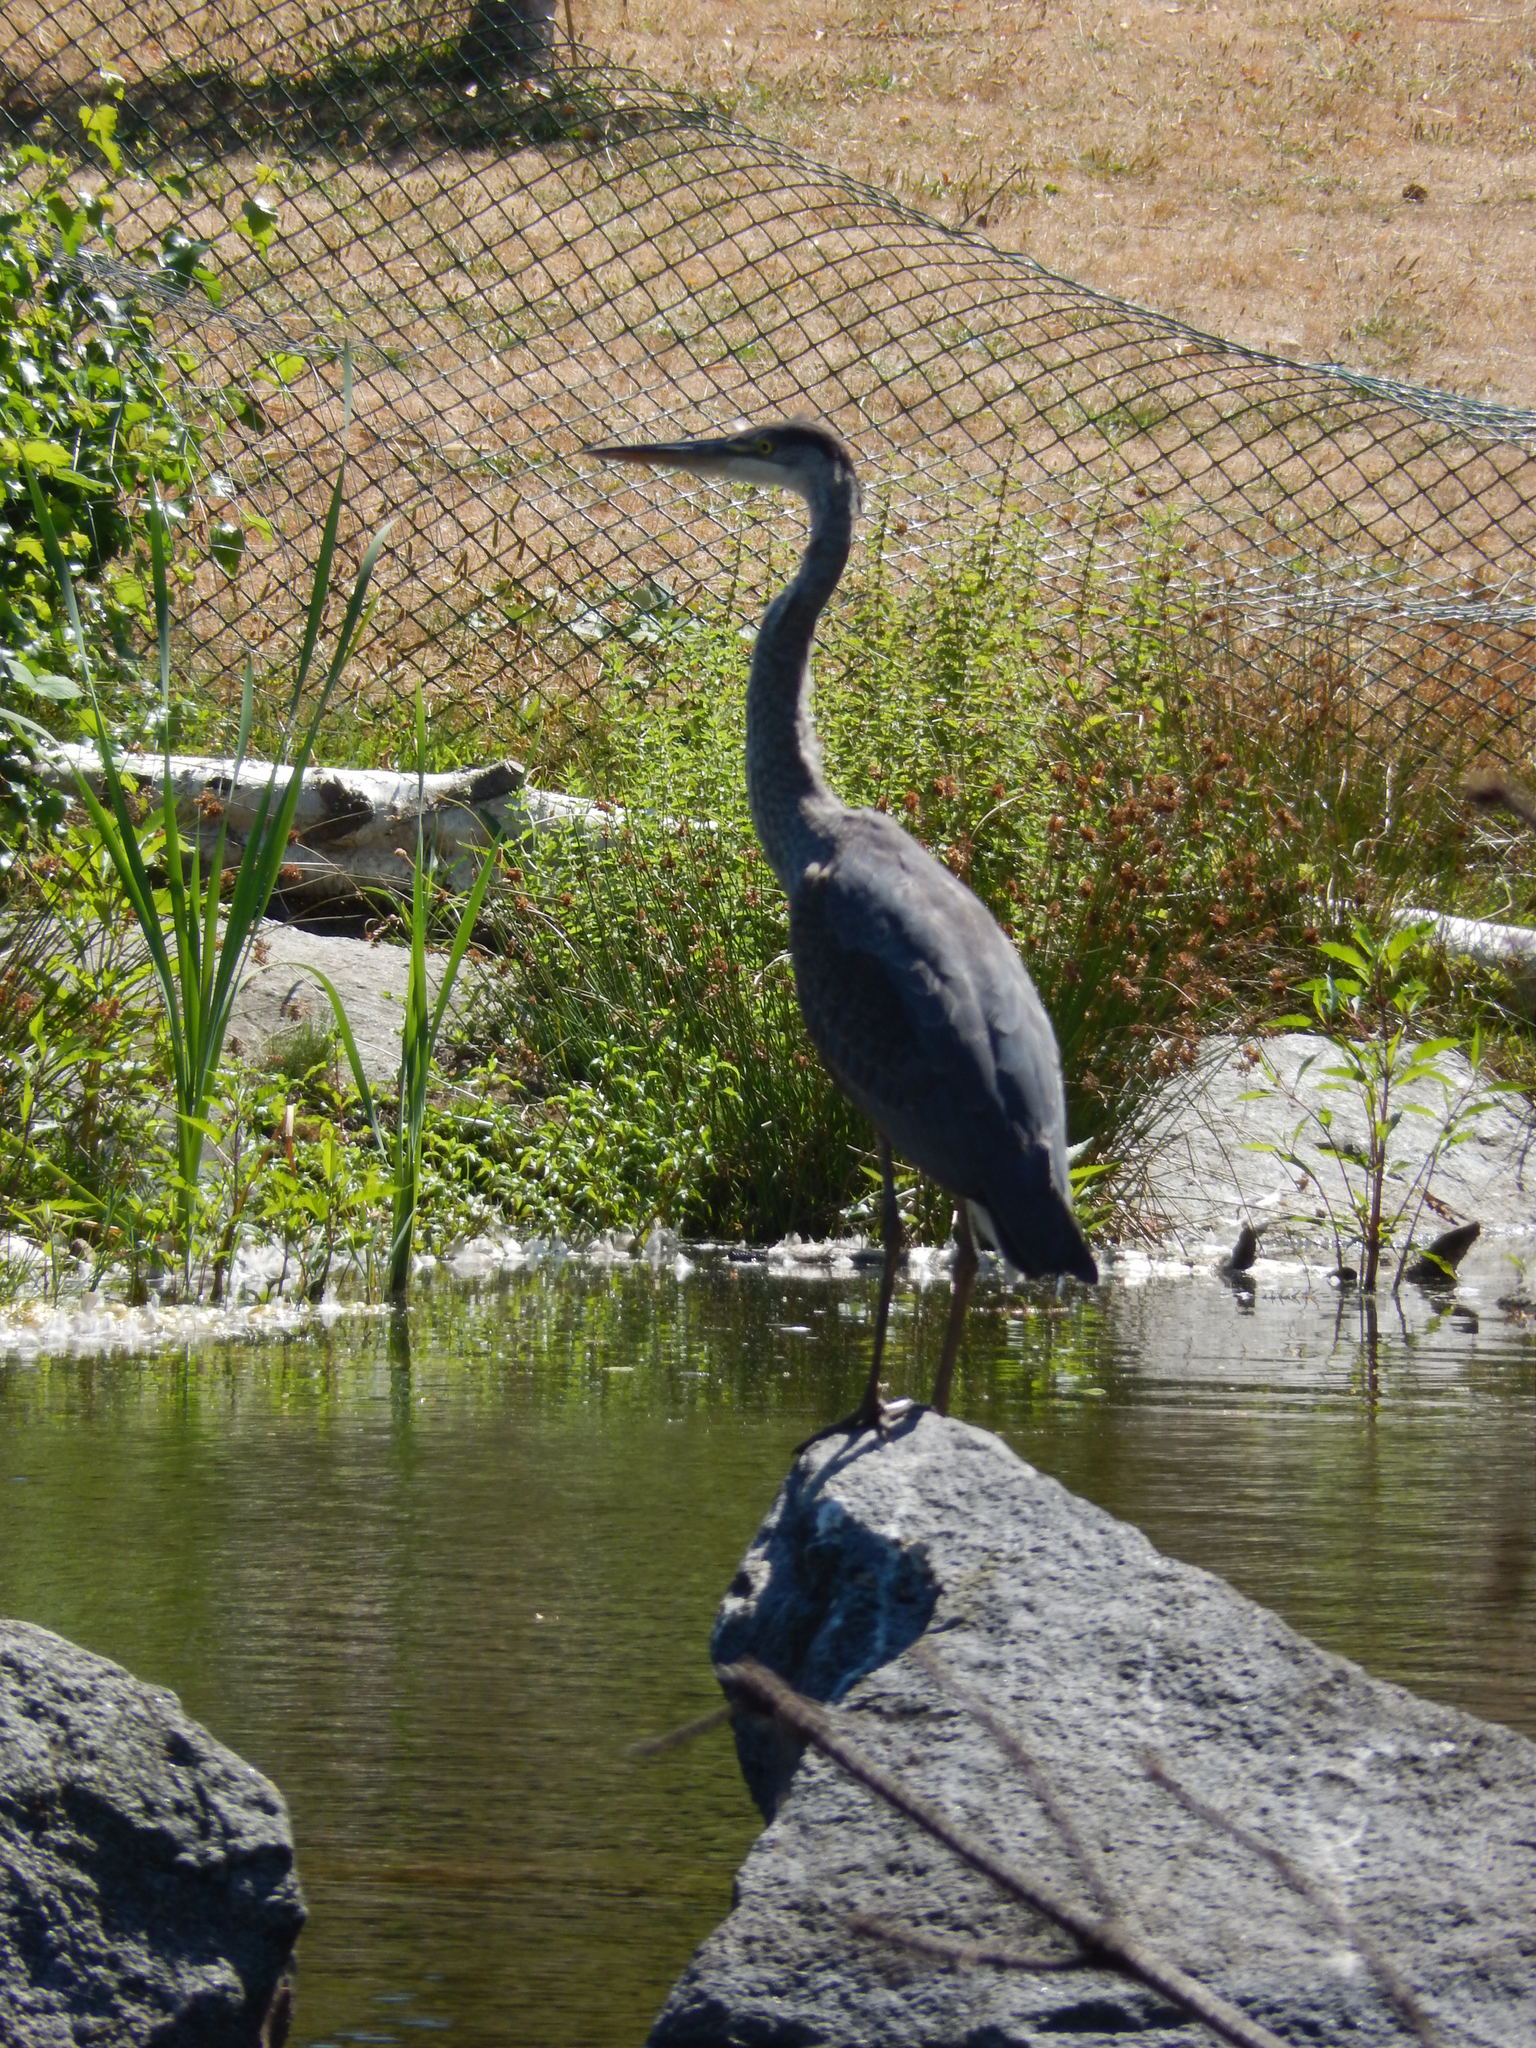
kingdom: Animalia
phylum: Chordata
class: Aves
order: Pelecaniformes
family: Ardeidae
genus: Ardea
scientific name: Ardea herodias
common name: Great blue heron
